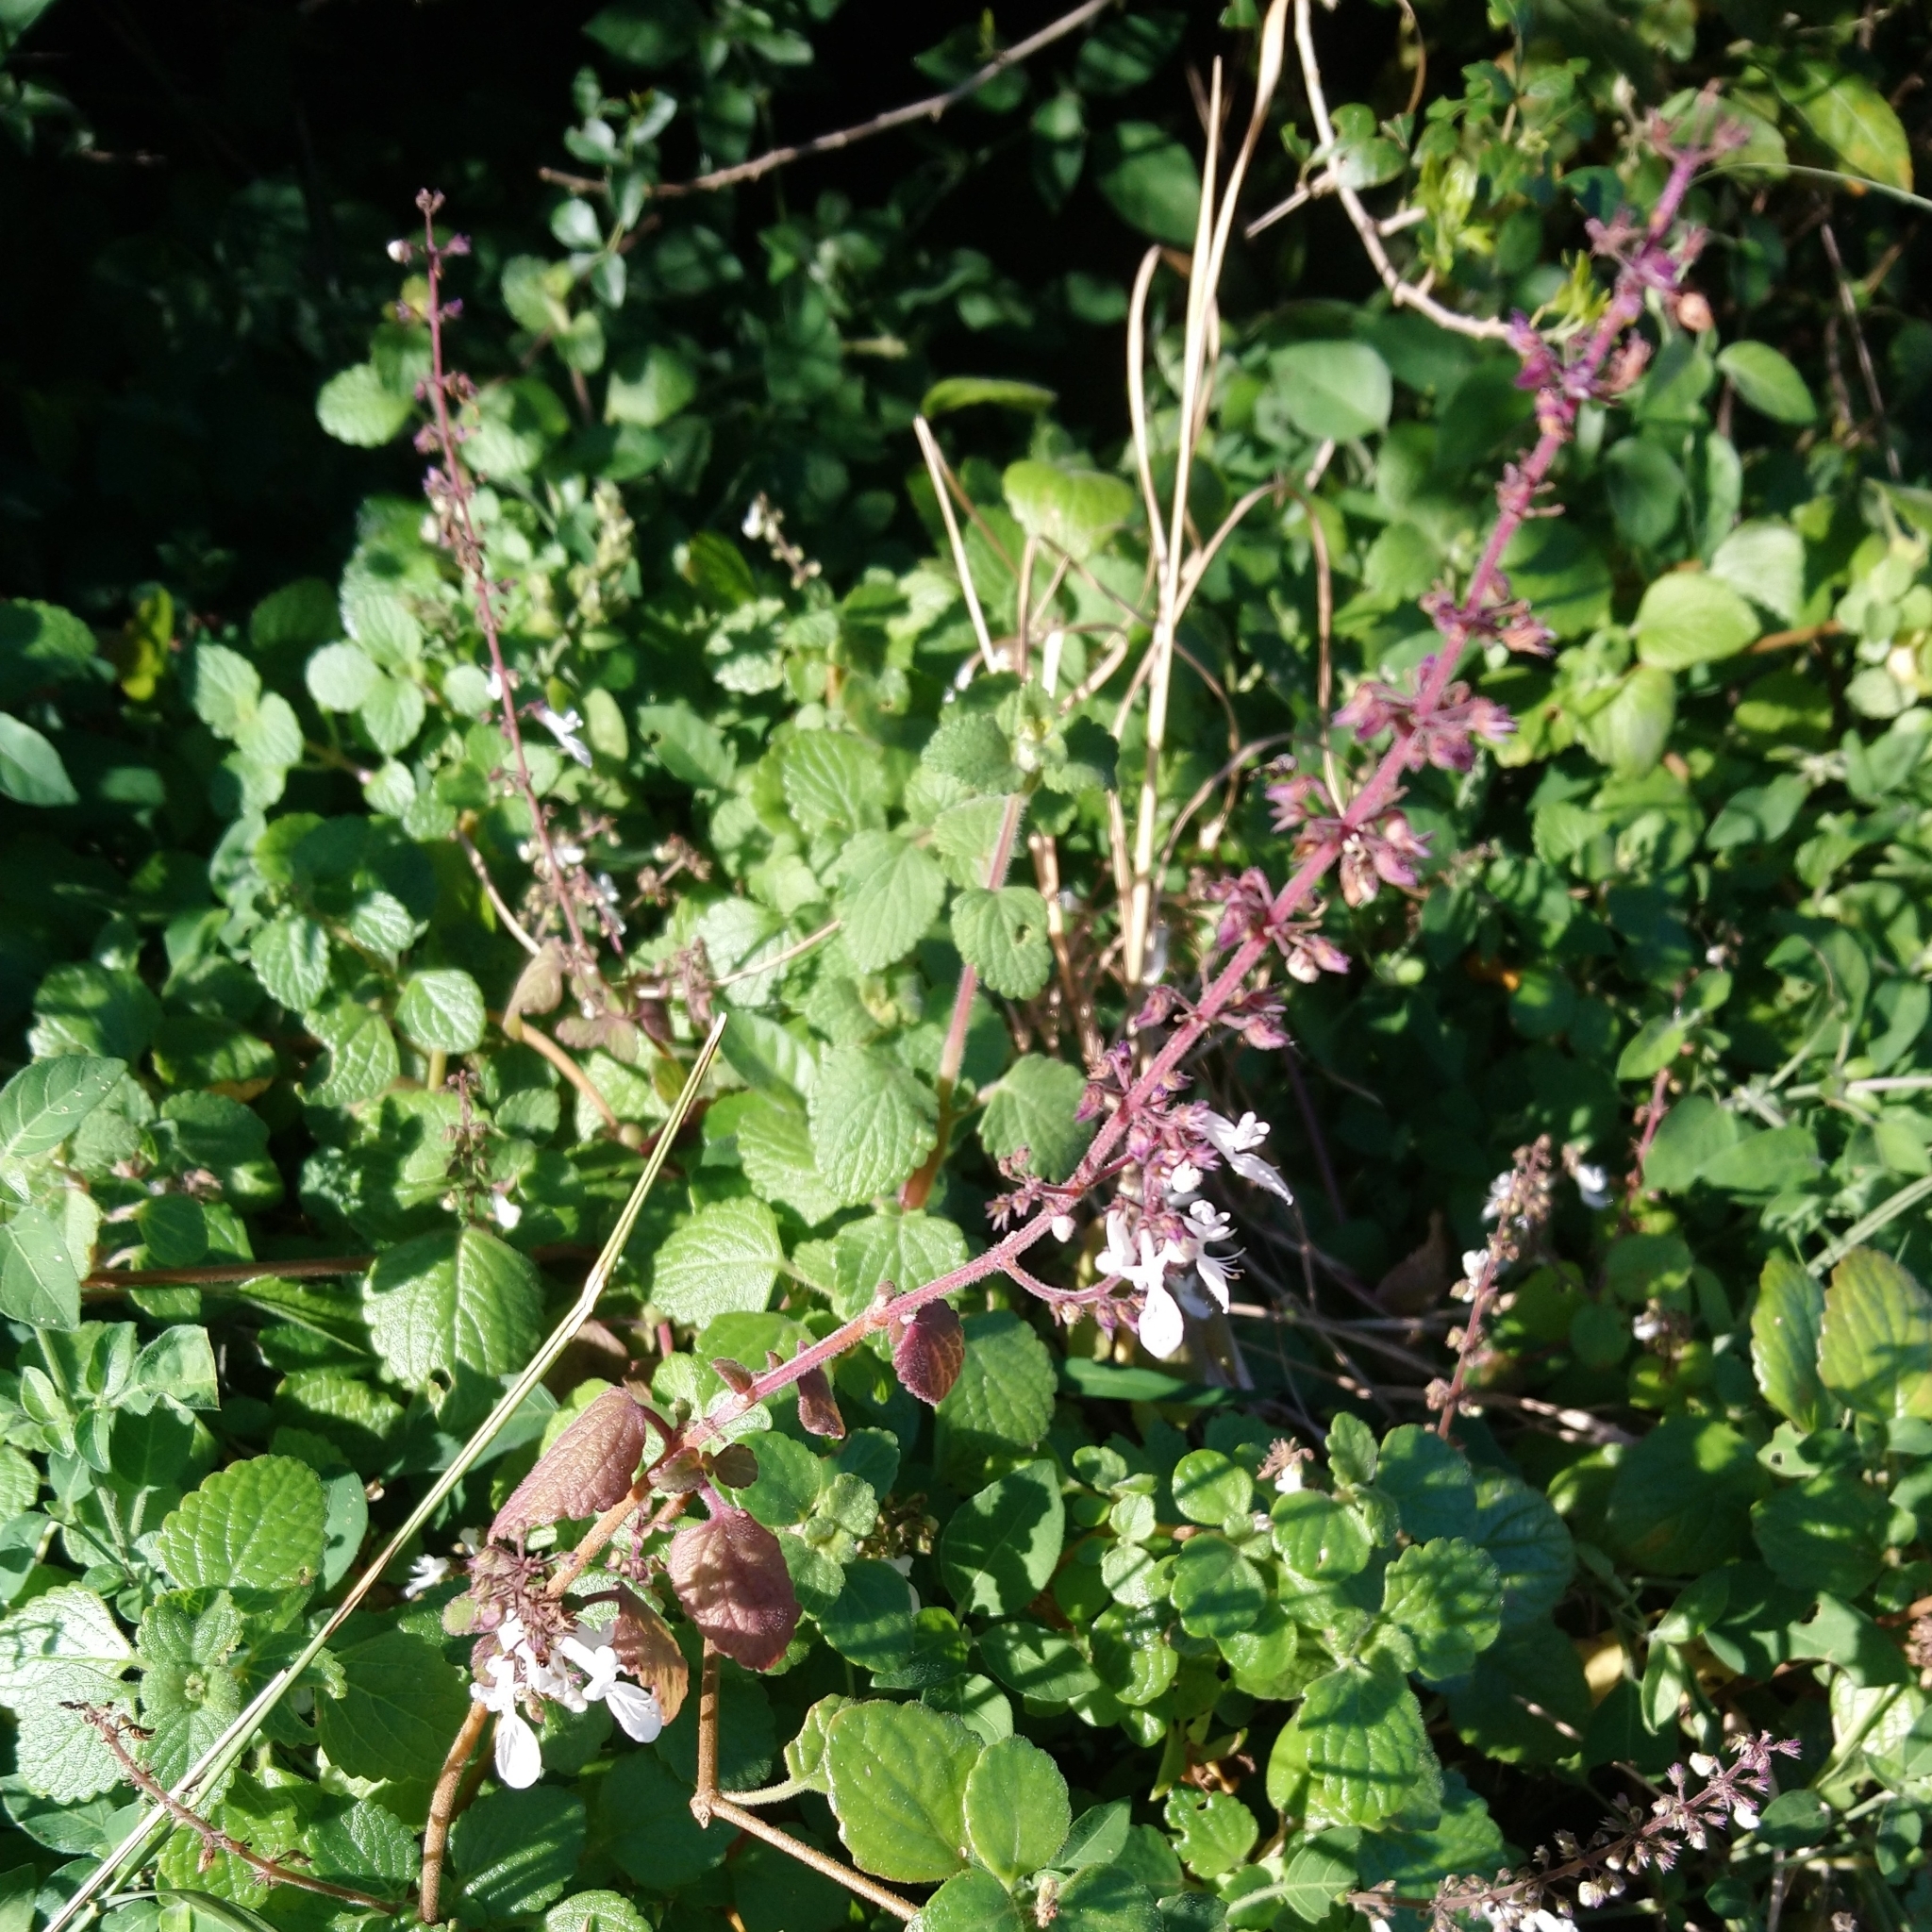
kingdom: Plantae
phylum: Tracheophyta
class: Magnoliopsida
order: Lamiales
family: Lamiaceae
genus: Coleus
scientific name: Coleus madagascariensis
